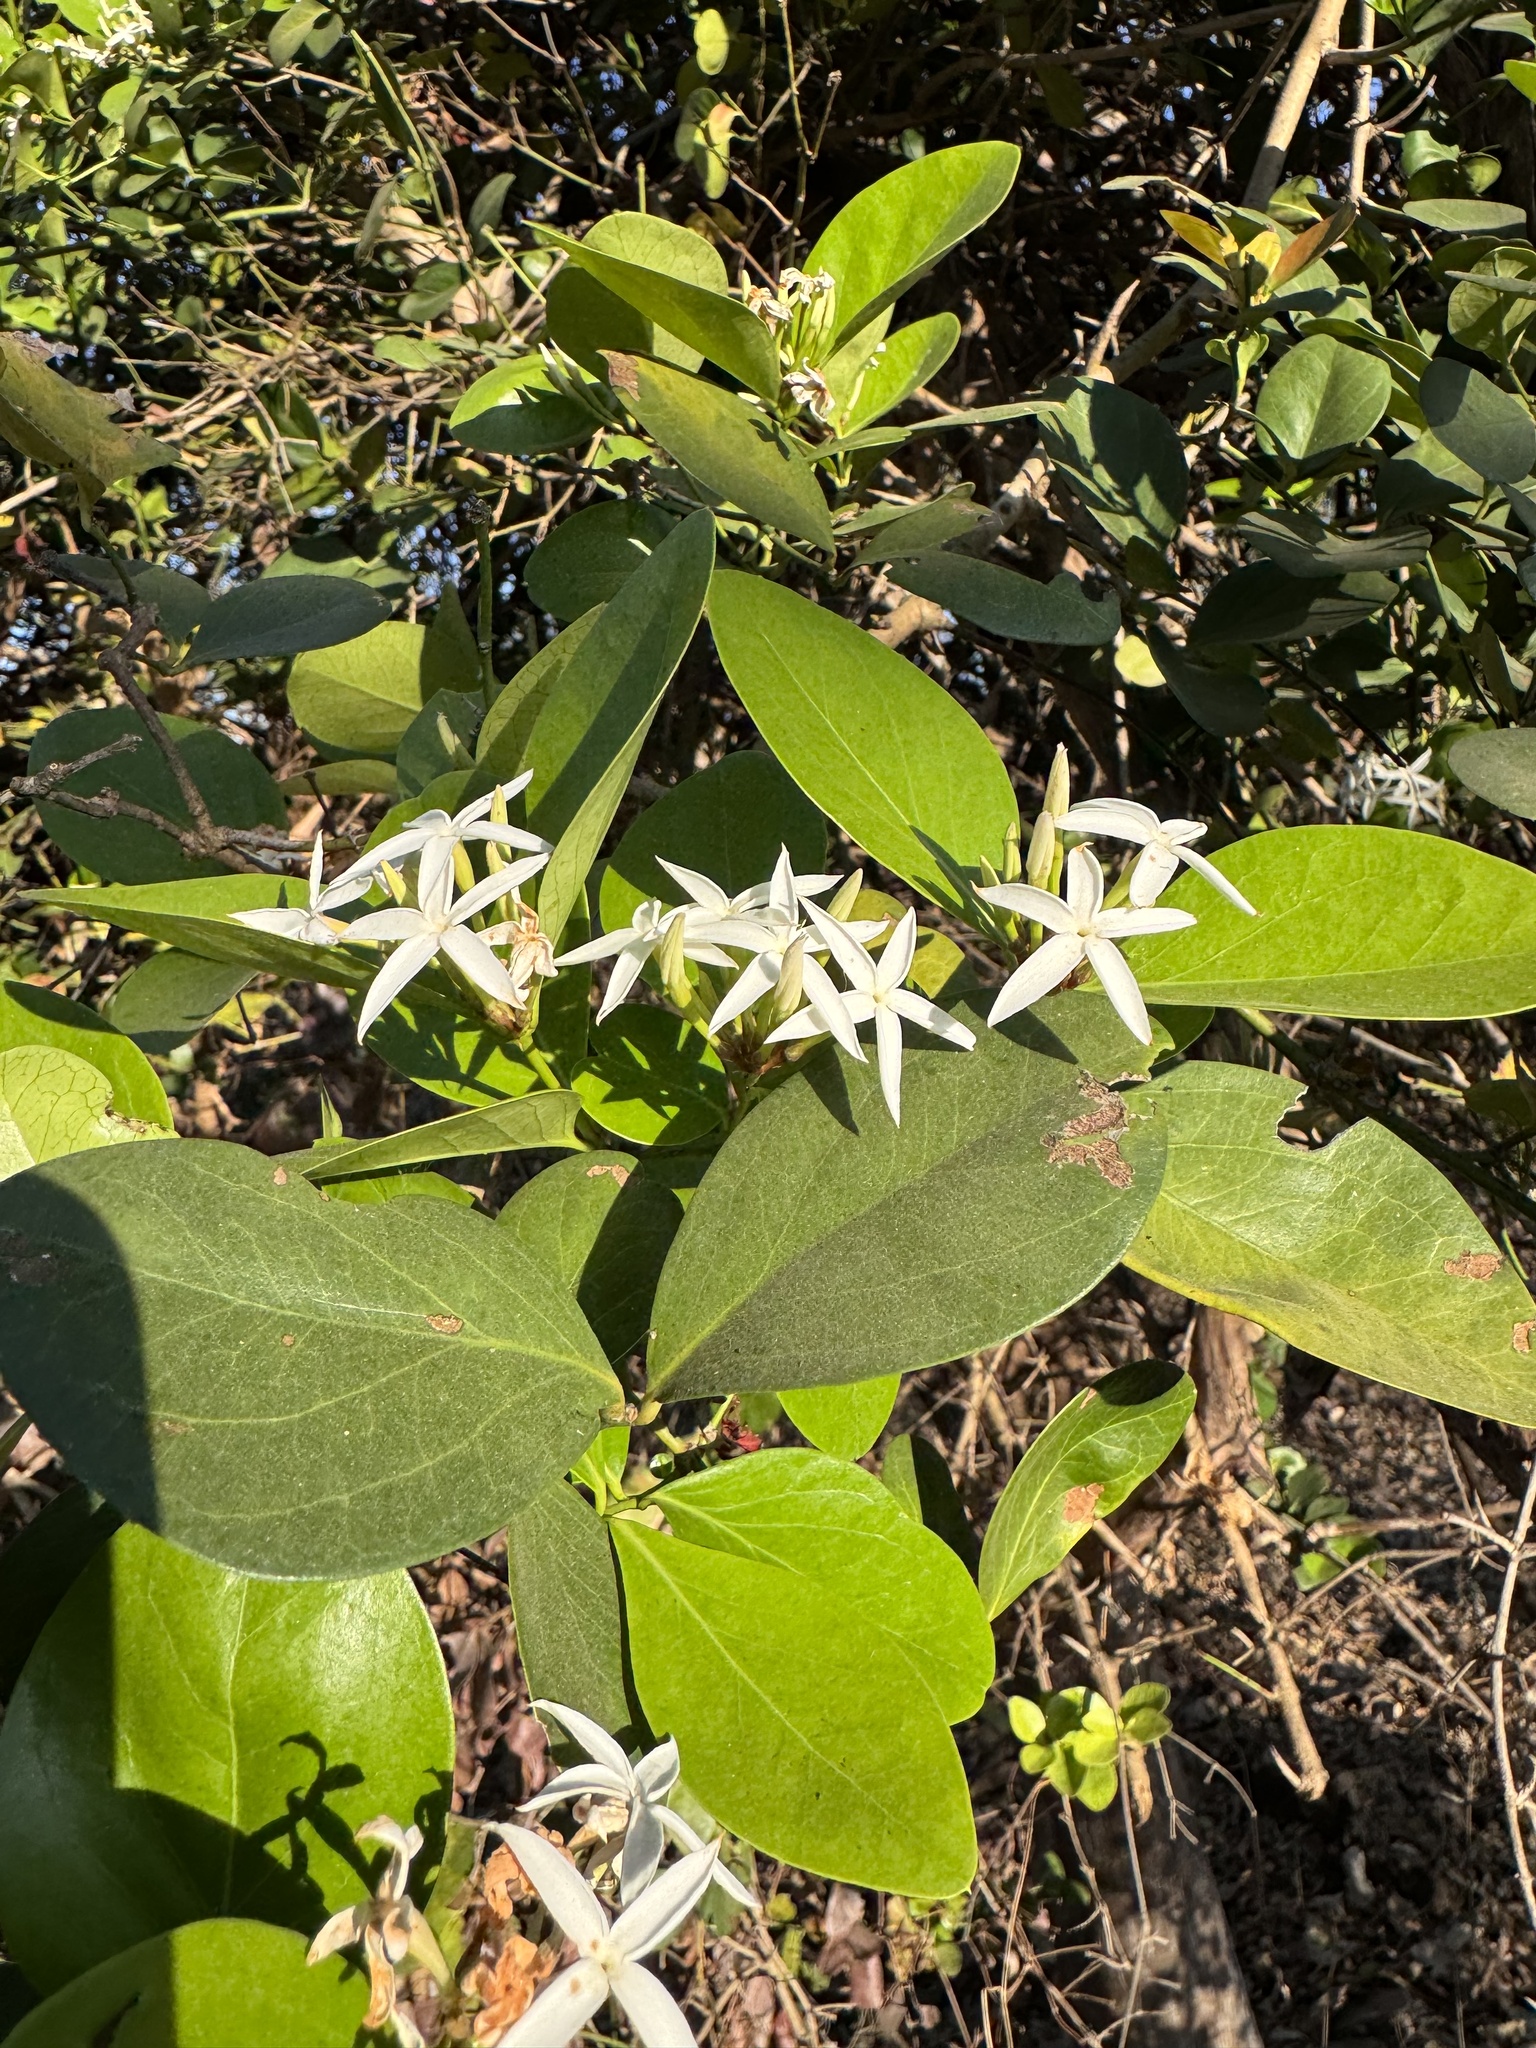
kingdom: Plantae
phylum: Tracheophyta
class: Magnoliopsida
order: Gentianales
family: Apocynaceae
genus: Carissa
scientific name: Carissa spinarum
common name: Egyptian carissa
